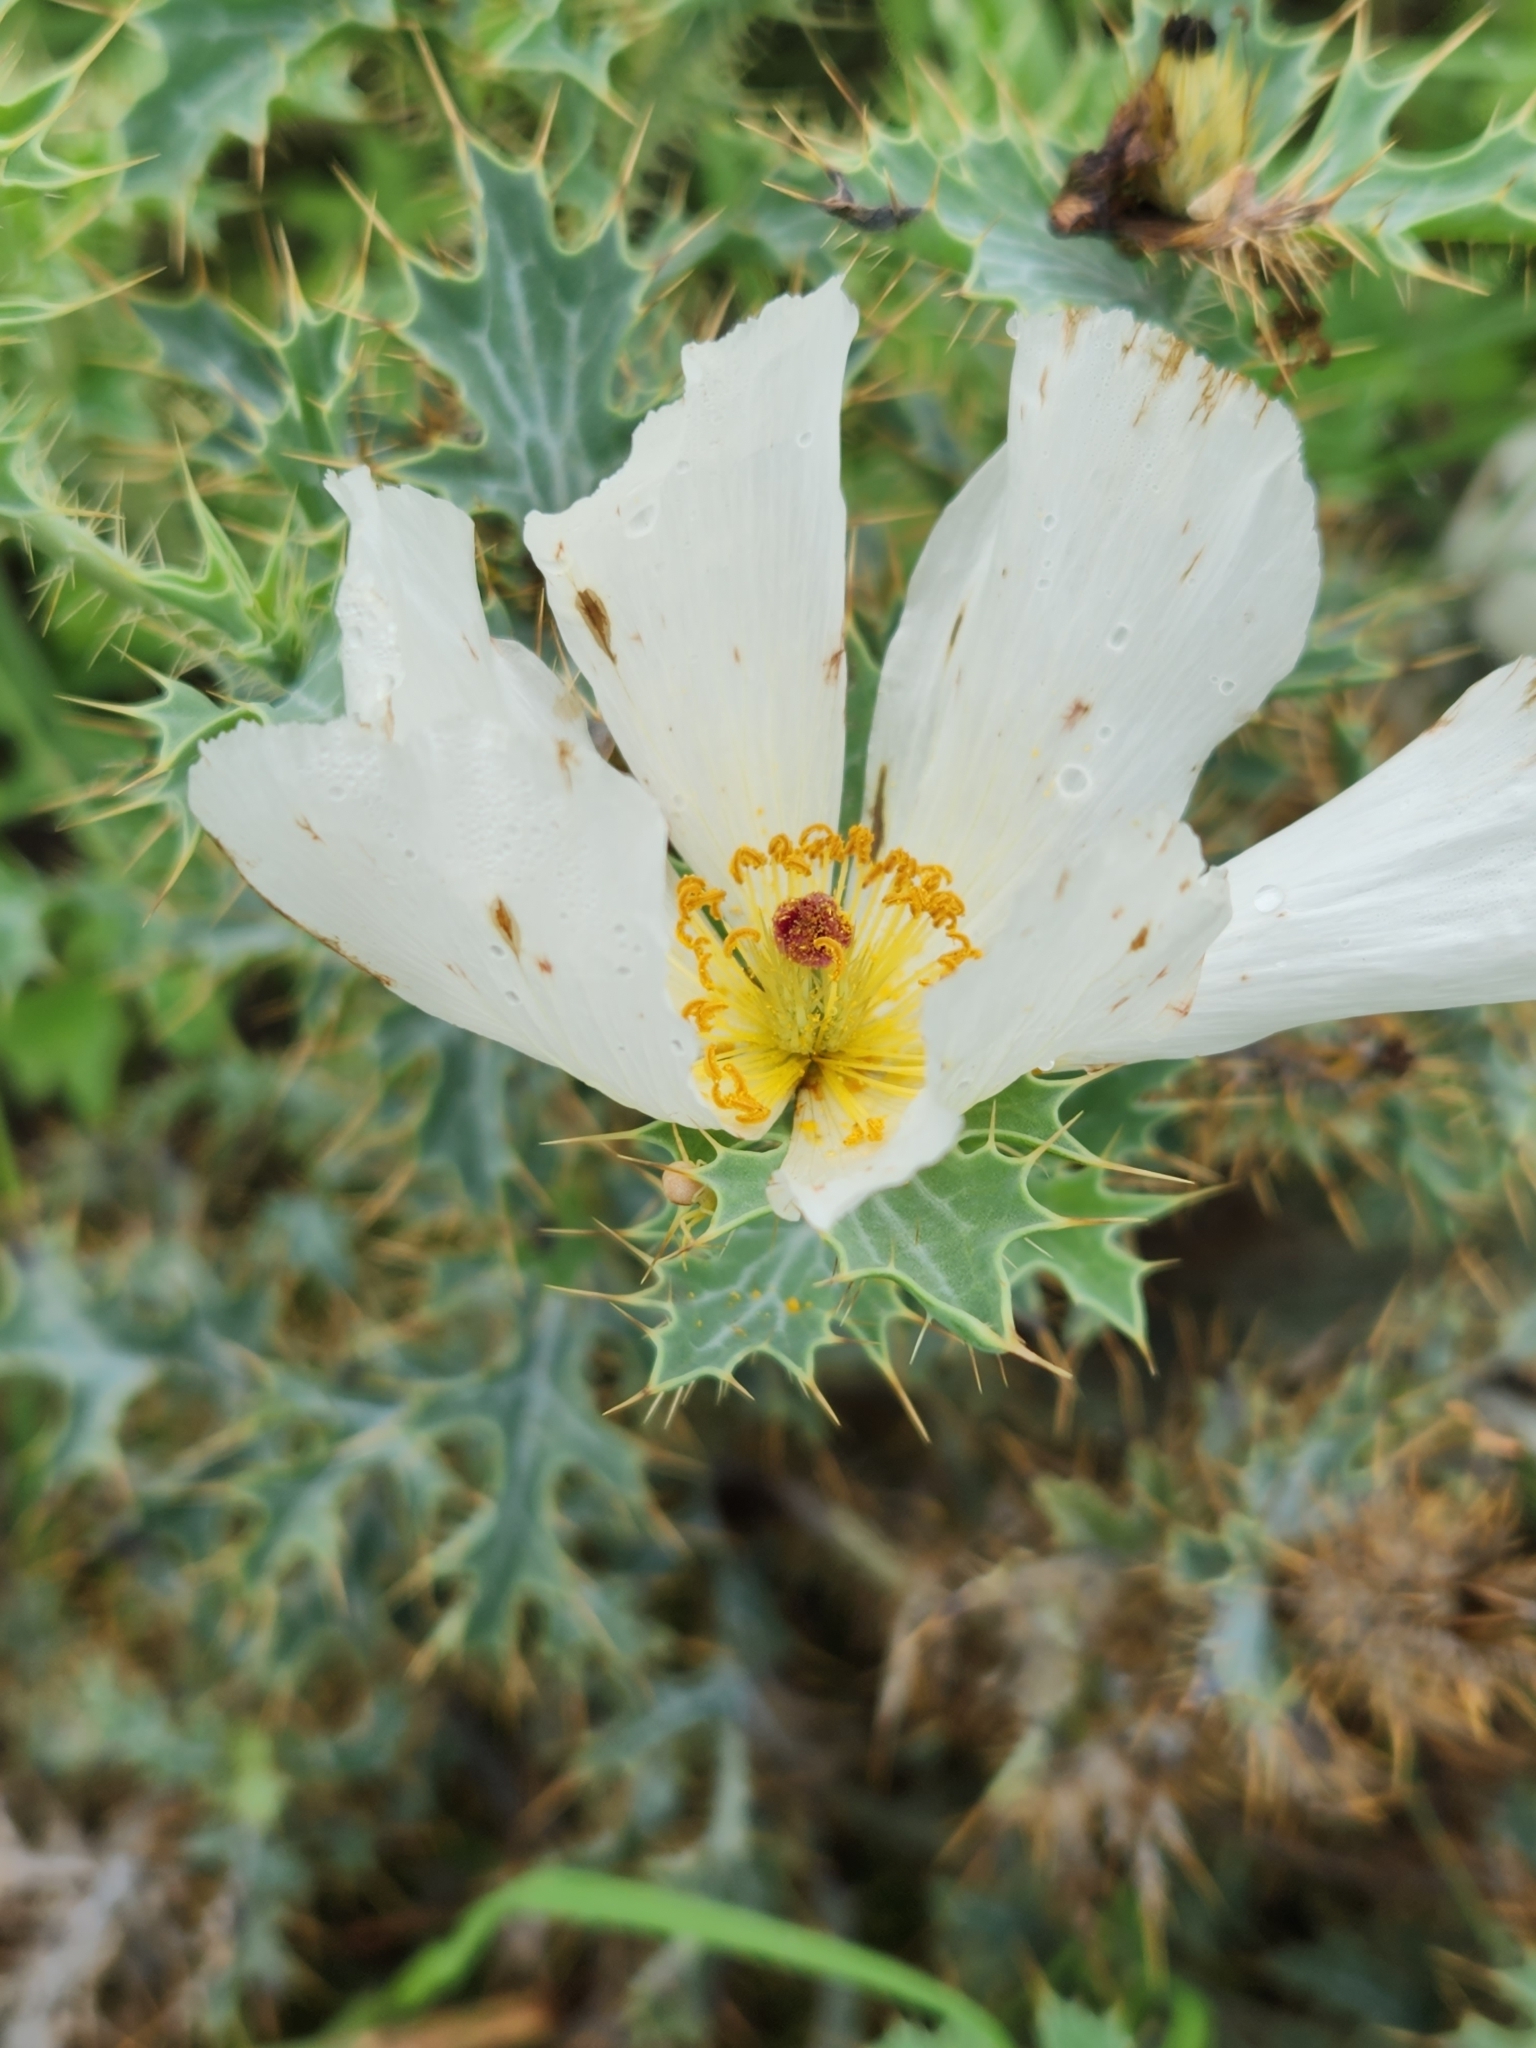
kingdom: Plantae
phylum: Tracheophyta
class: Magnoliopsida
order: Ranunculales
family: Papaveraceae
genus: Argemone
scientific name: Argemone aurantiaca
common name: Texas prickly-poppy
